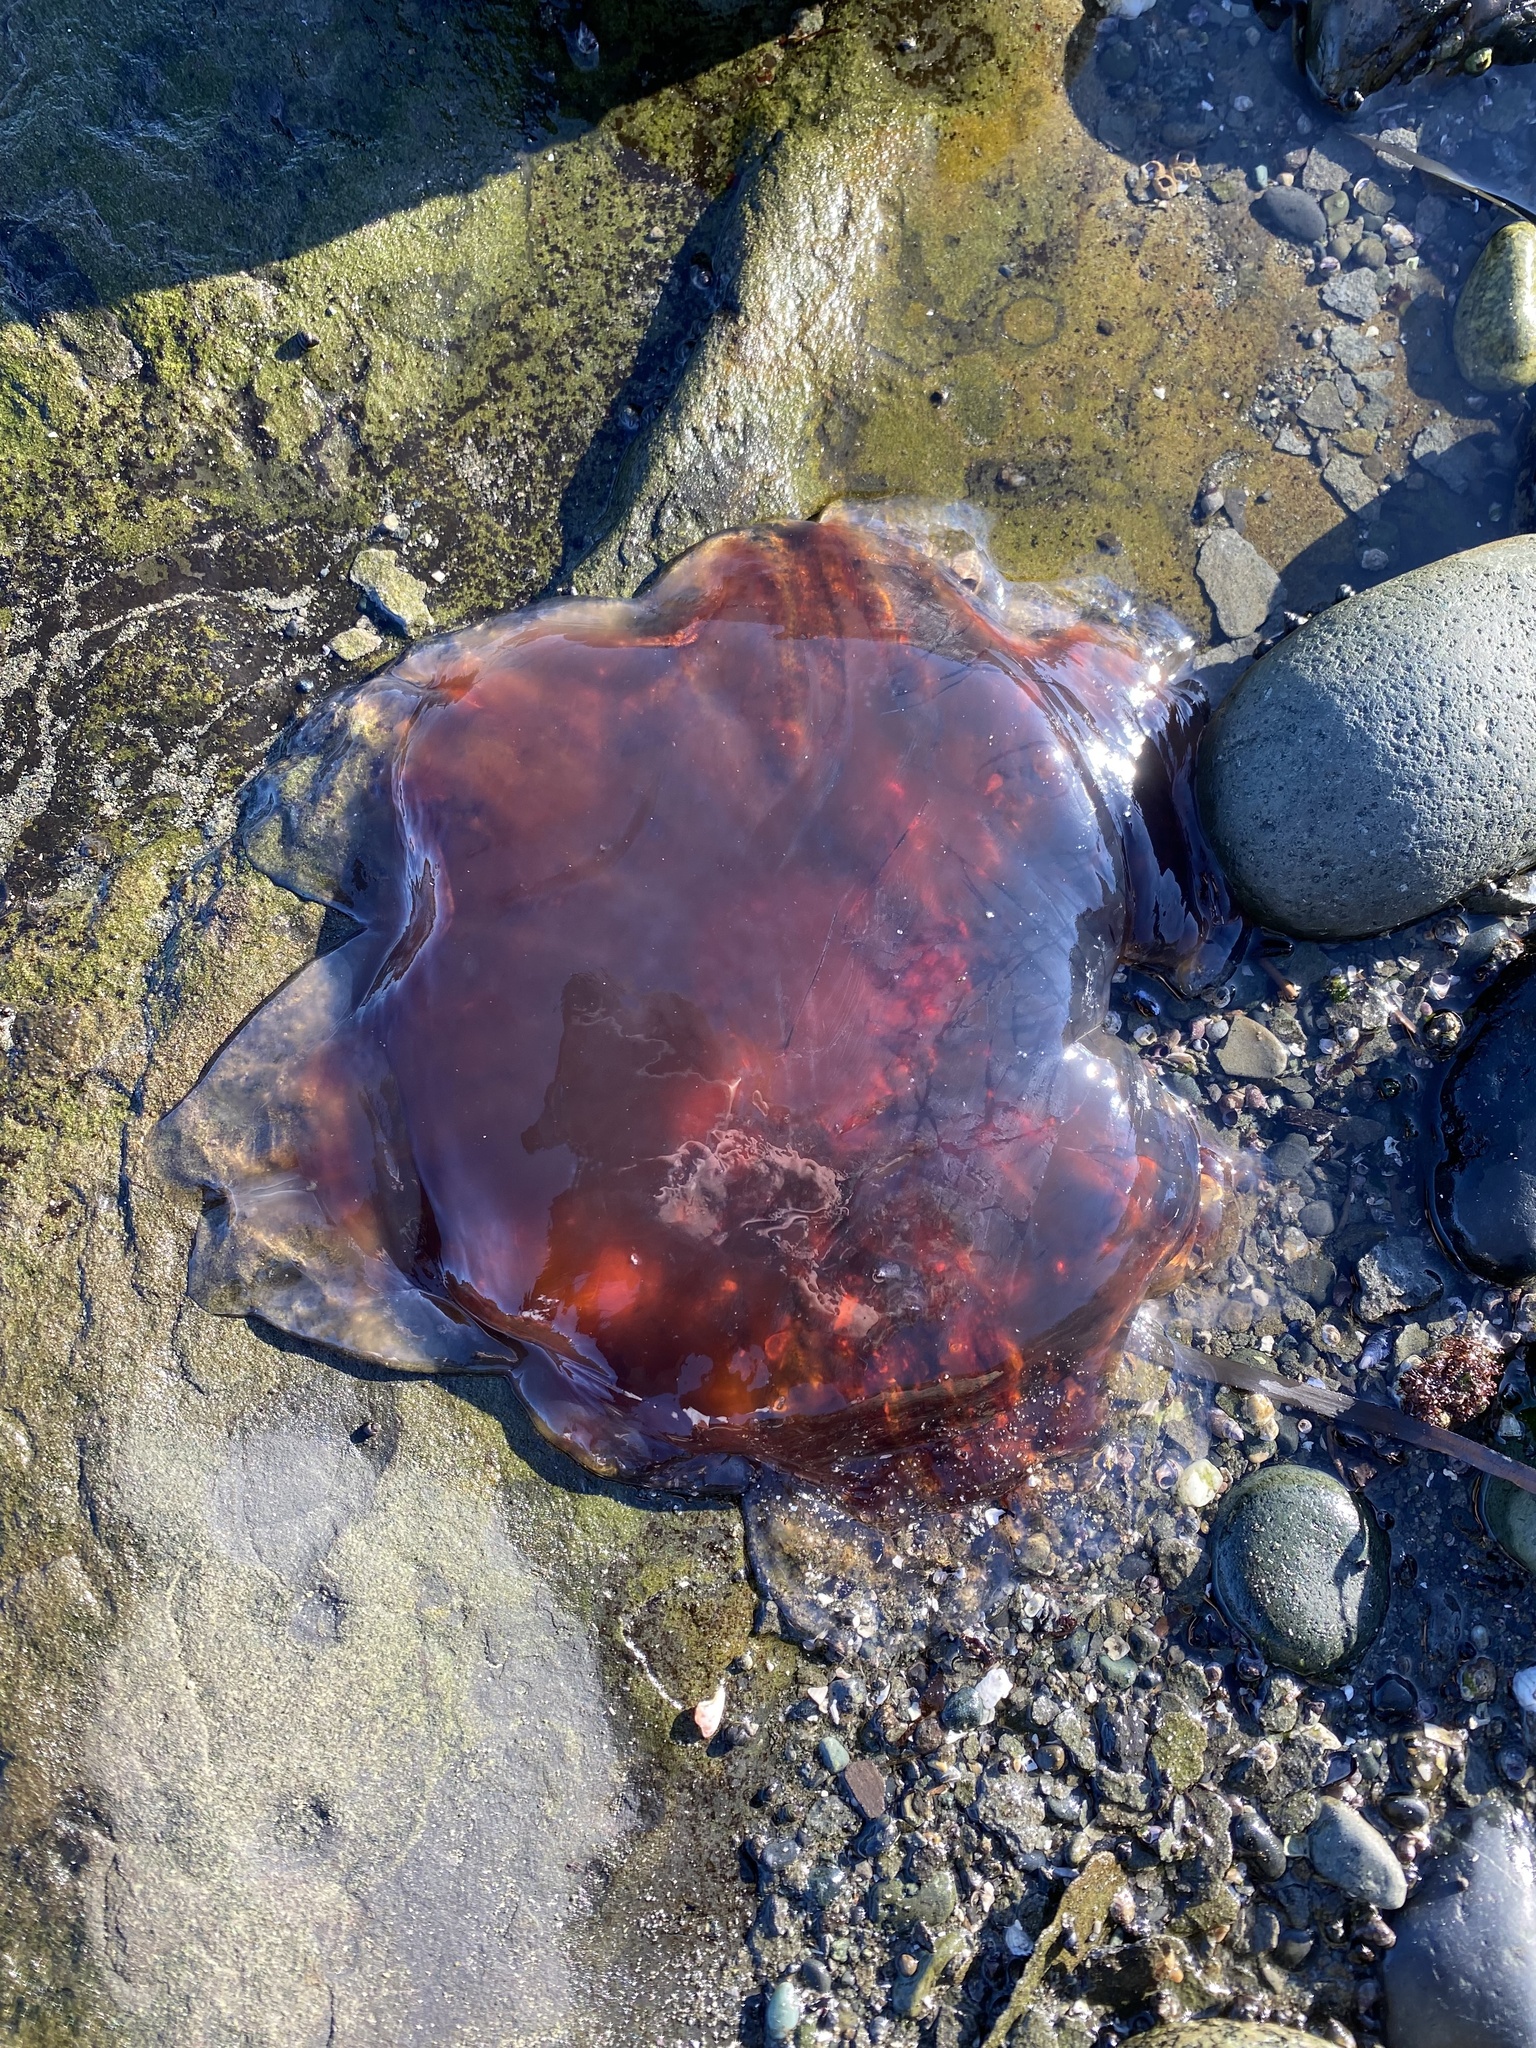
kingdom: Animalia
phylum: Cnidaria
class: Scyphozoa
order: Semaeostomeae
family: Cyaneidae
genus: Cyanea
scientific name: Cyanea ferruginea
